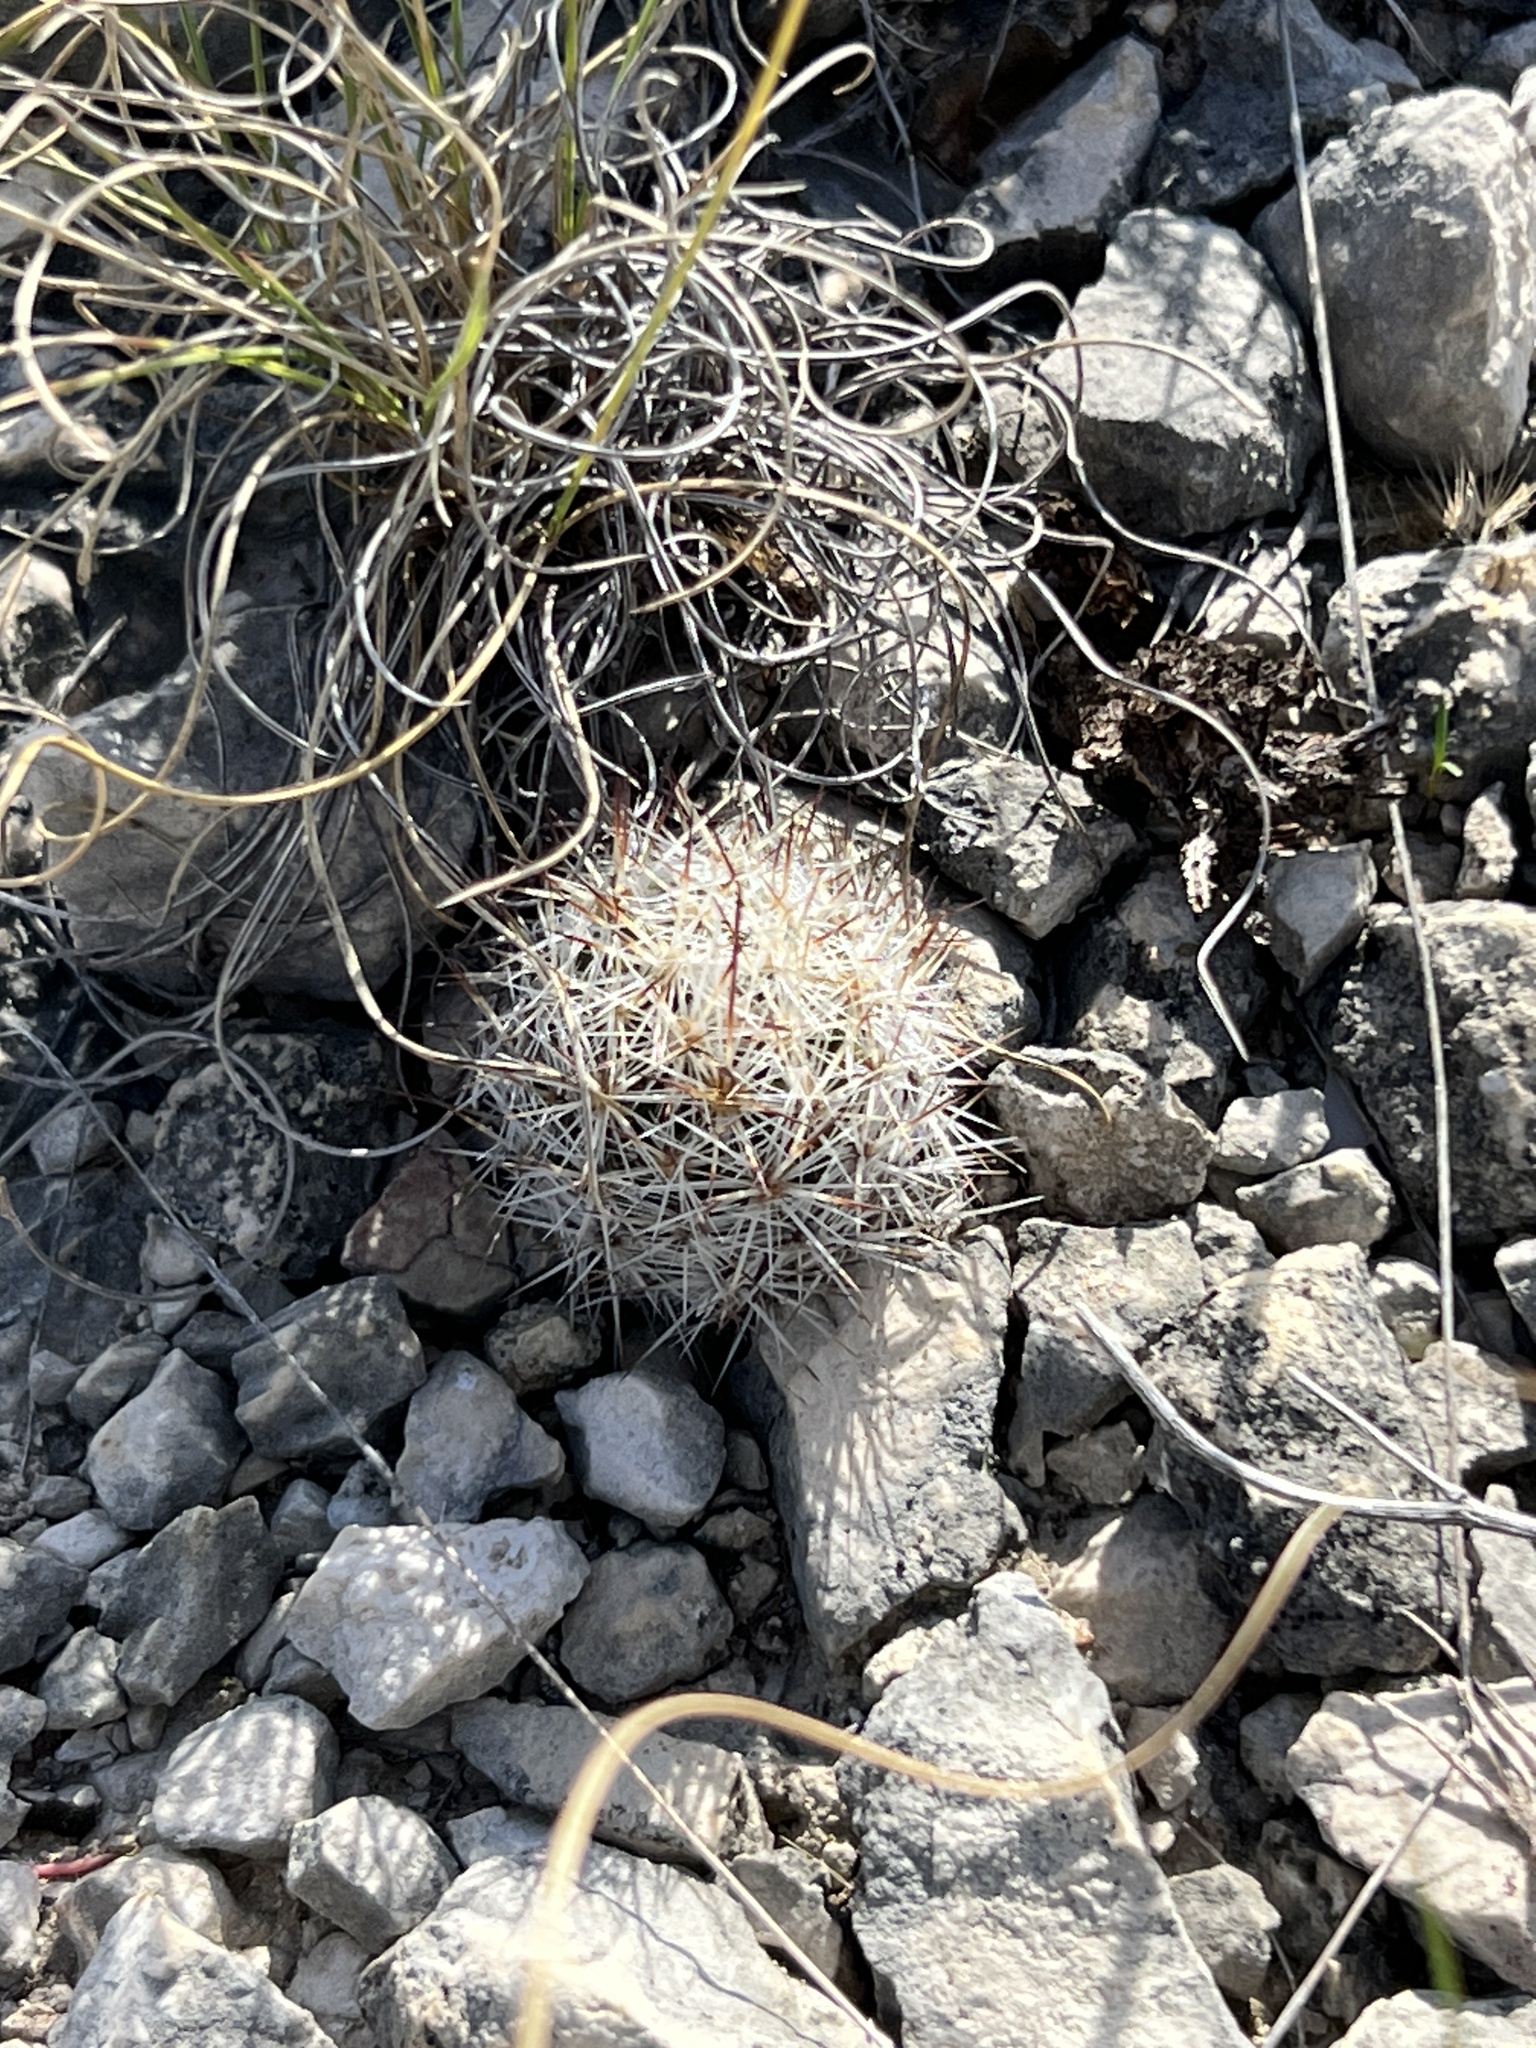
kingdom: Plantae
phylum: Tracheophyta
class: Magnoliopsida
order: Caryophyllales
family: Cactaceae
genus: Pelecyphora
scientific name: Pelecyphora emskoetteriana
